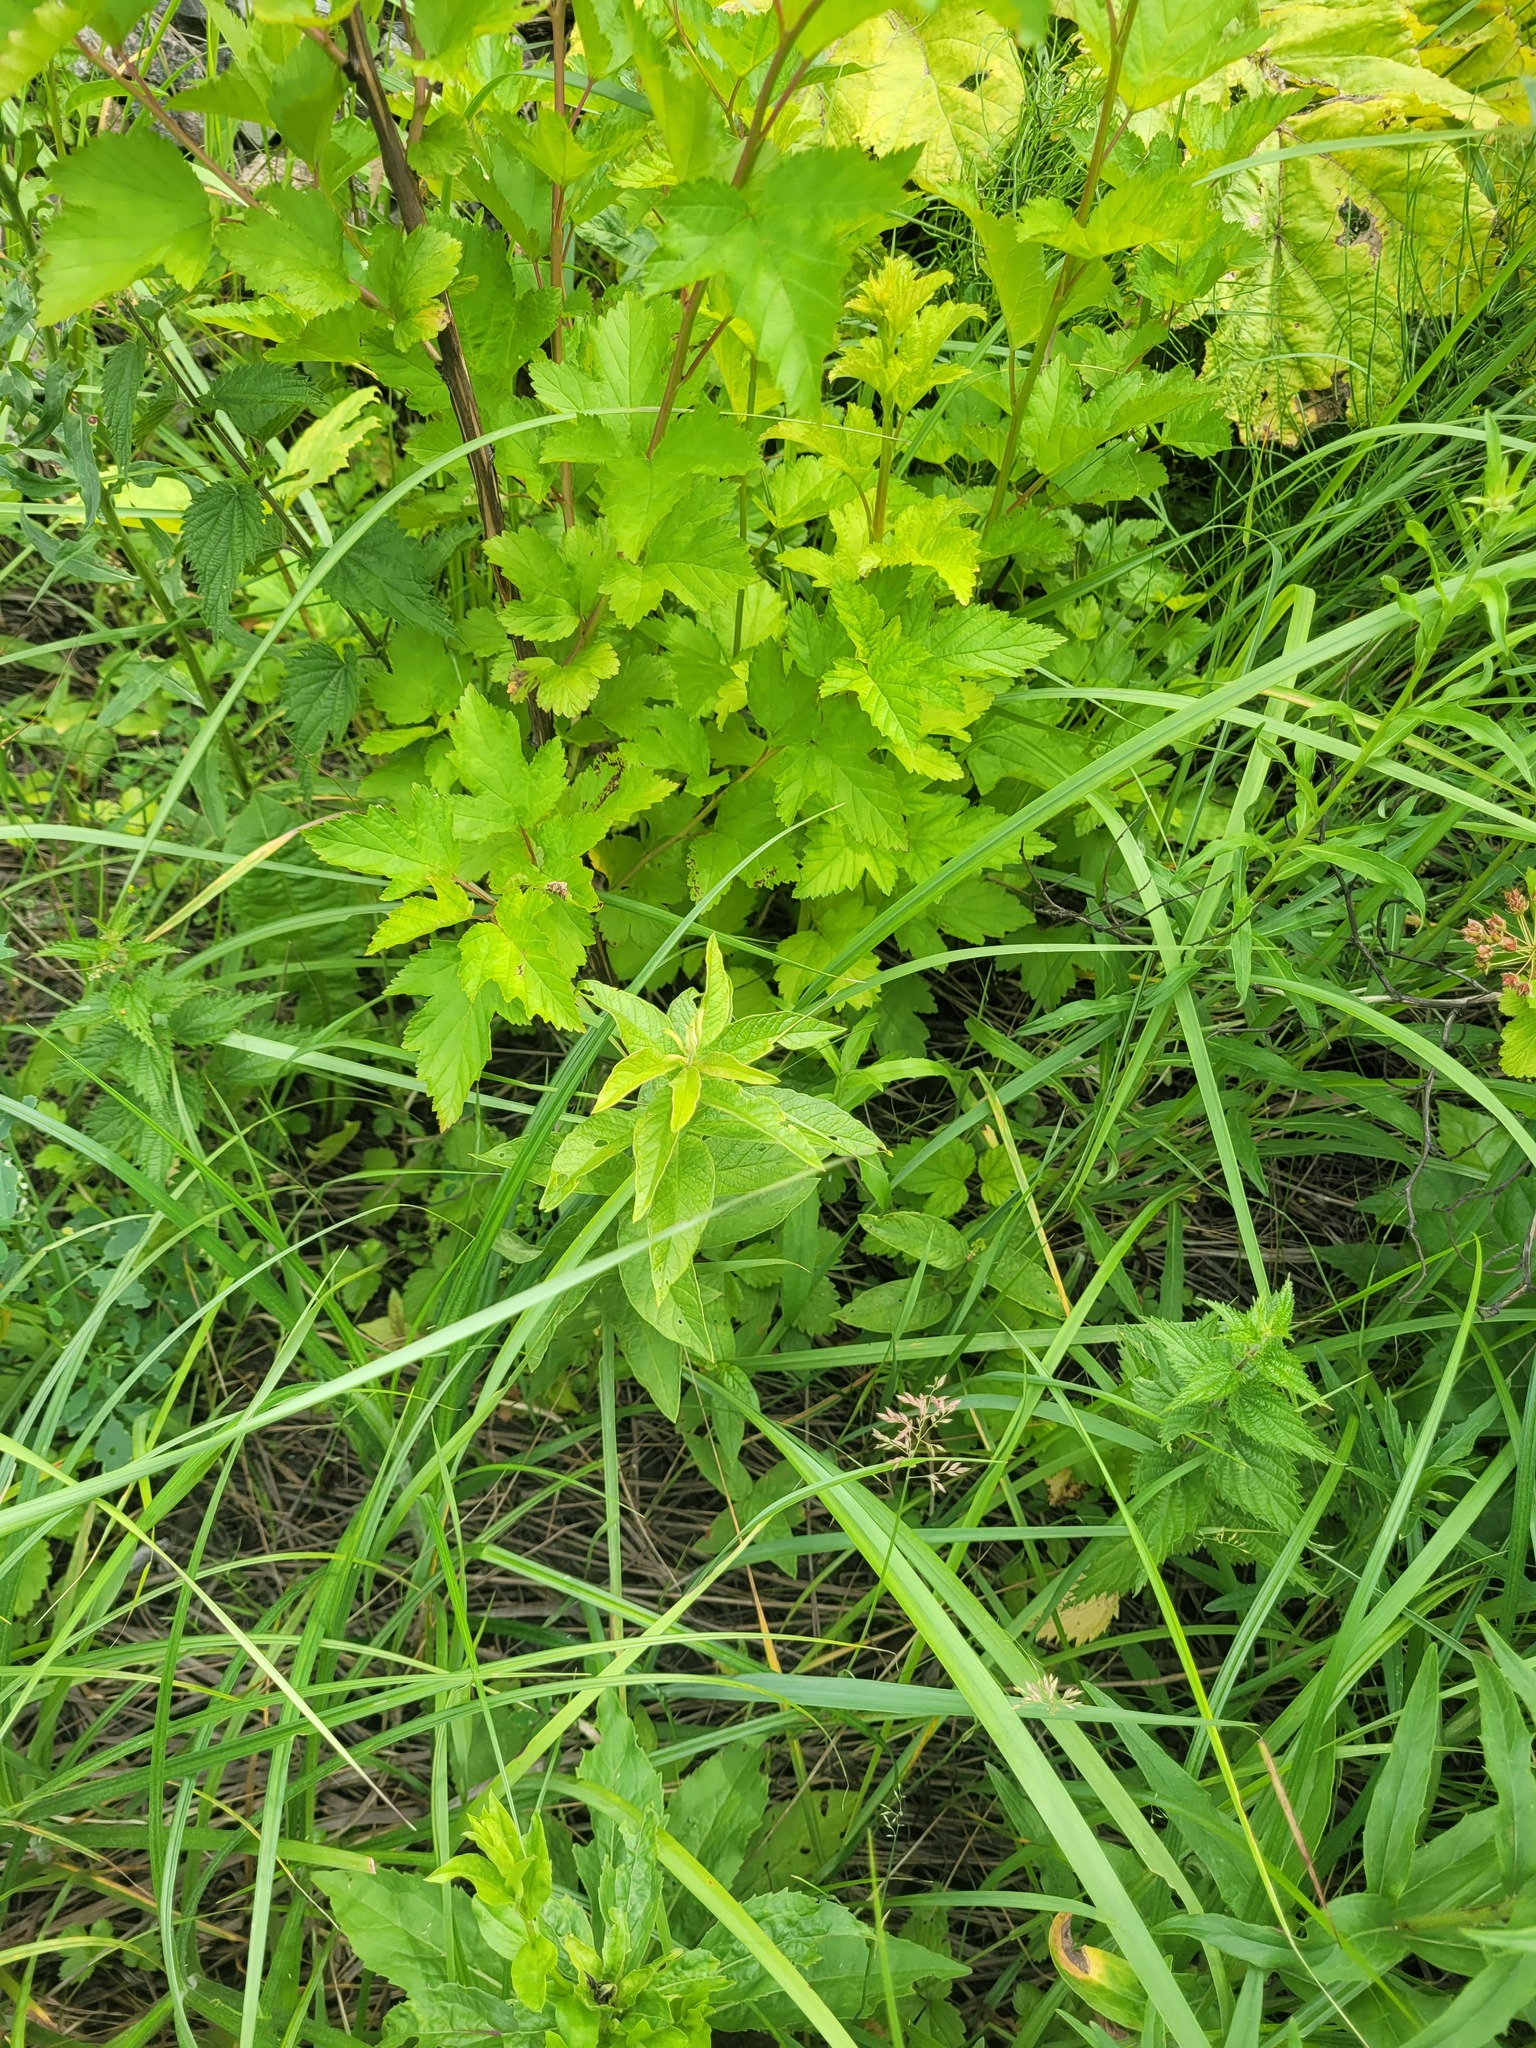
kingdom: Plantae
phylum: Tracheophyta
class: Magnoliopsida
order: Ericales
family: Primulaceae
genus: Lysimachia
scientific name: Lysimachia vulgaris
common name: Yellow loosestrife
